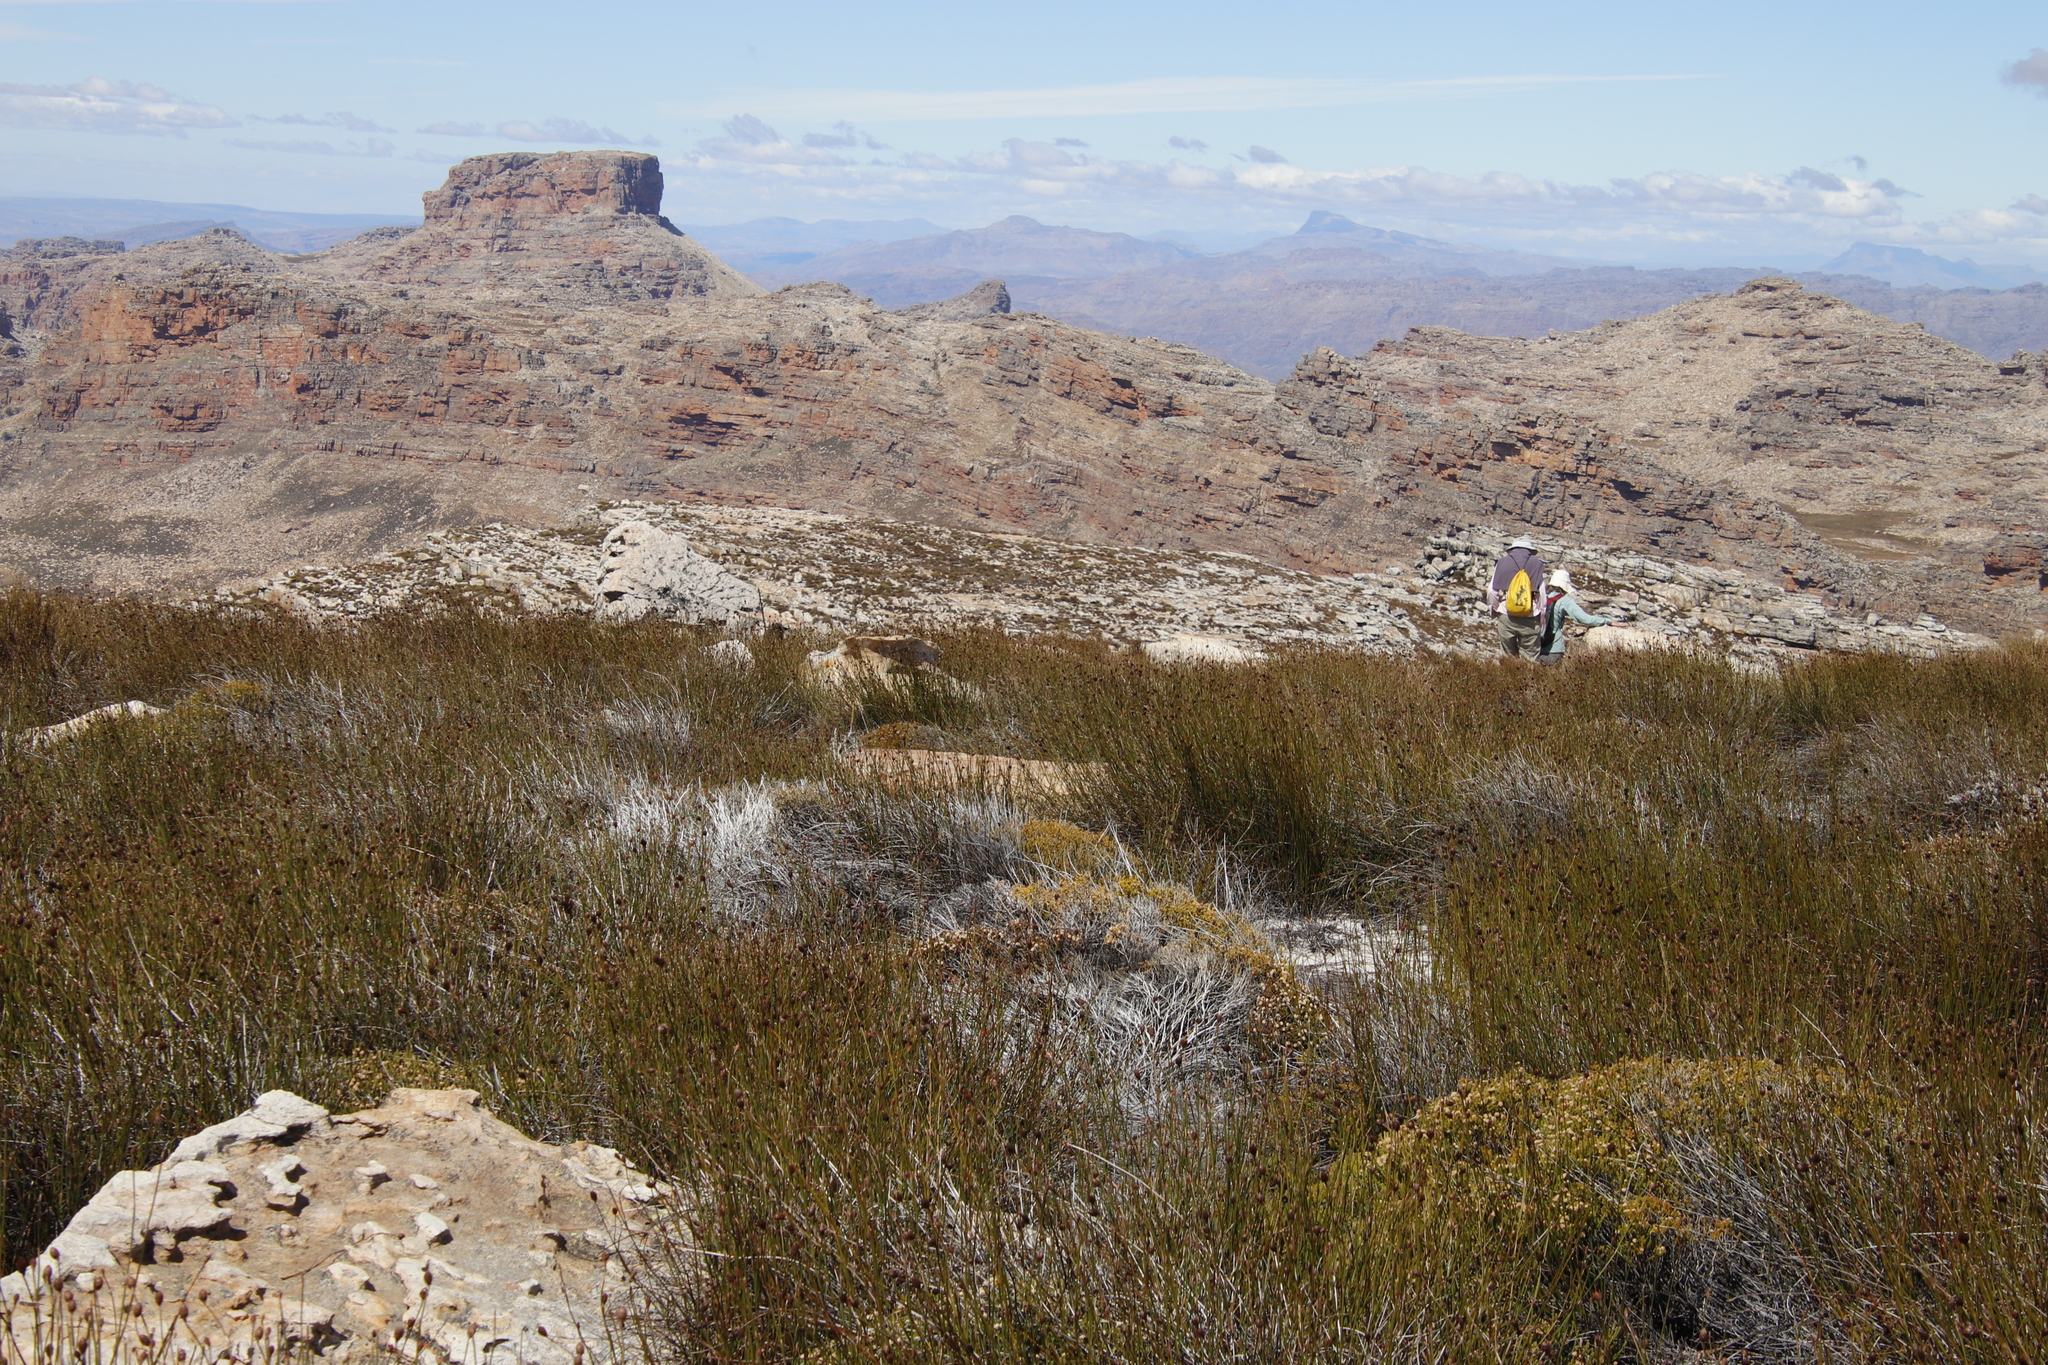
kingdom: Plantae
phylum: Tracheophyta
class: Liliopsida
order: Poales
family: Restionaceae
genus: Restio
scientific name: Restio constipatus
